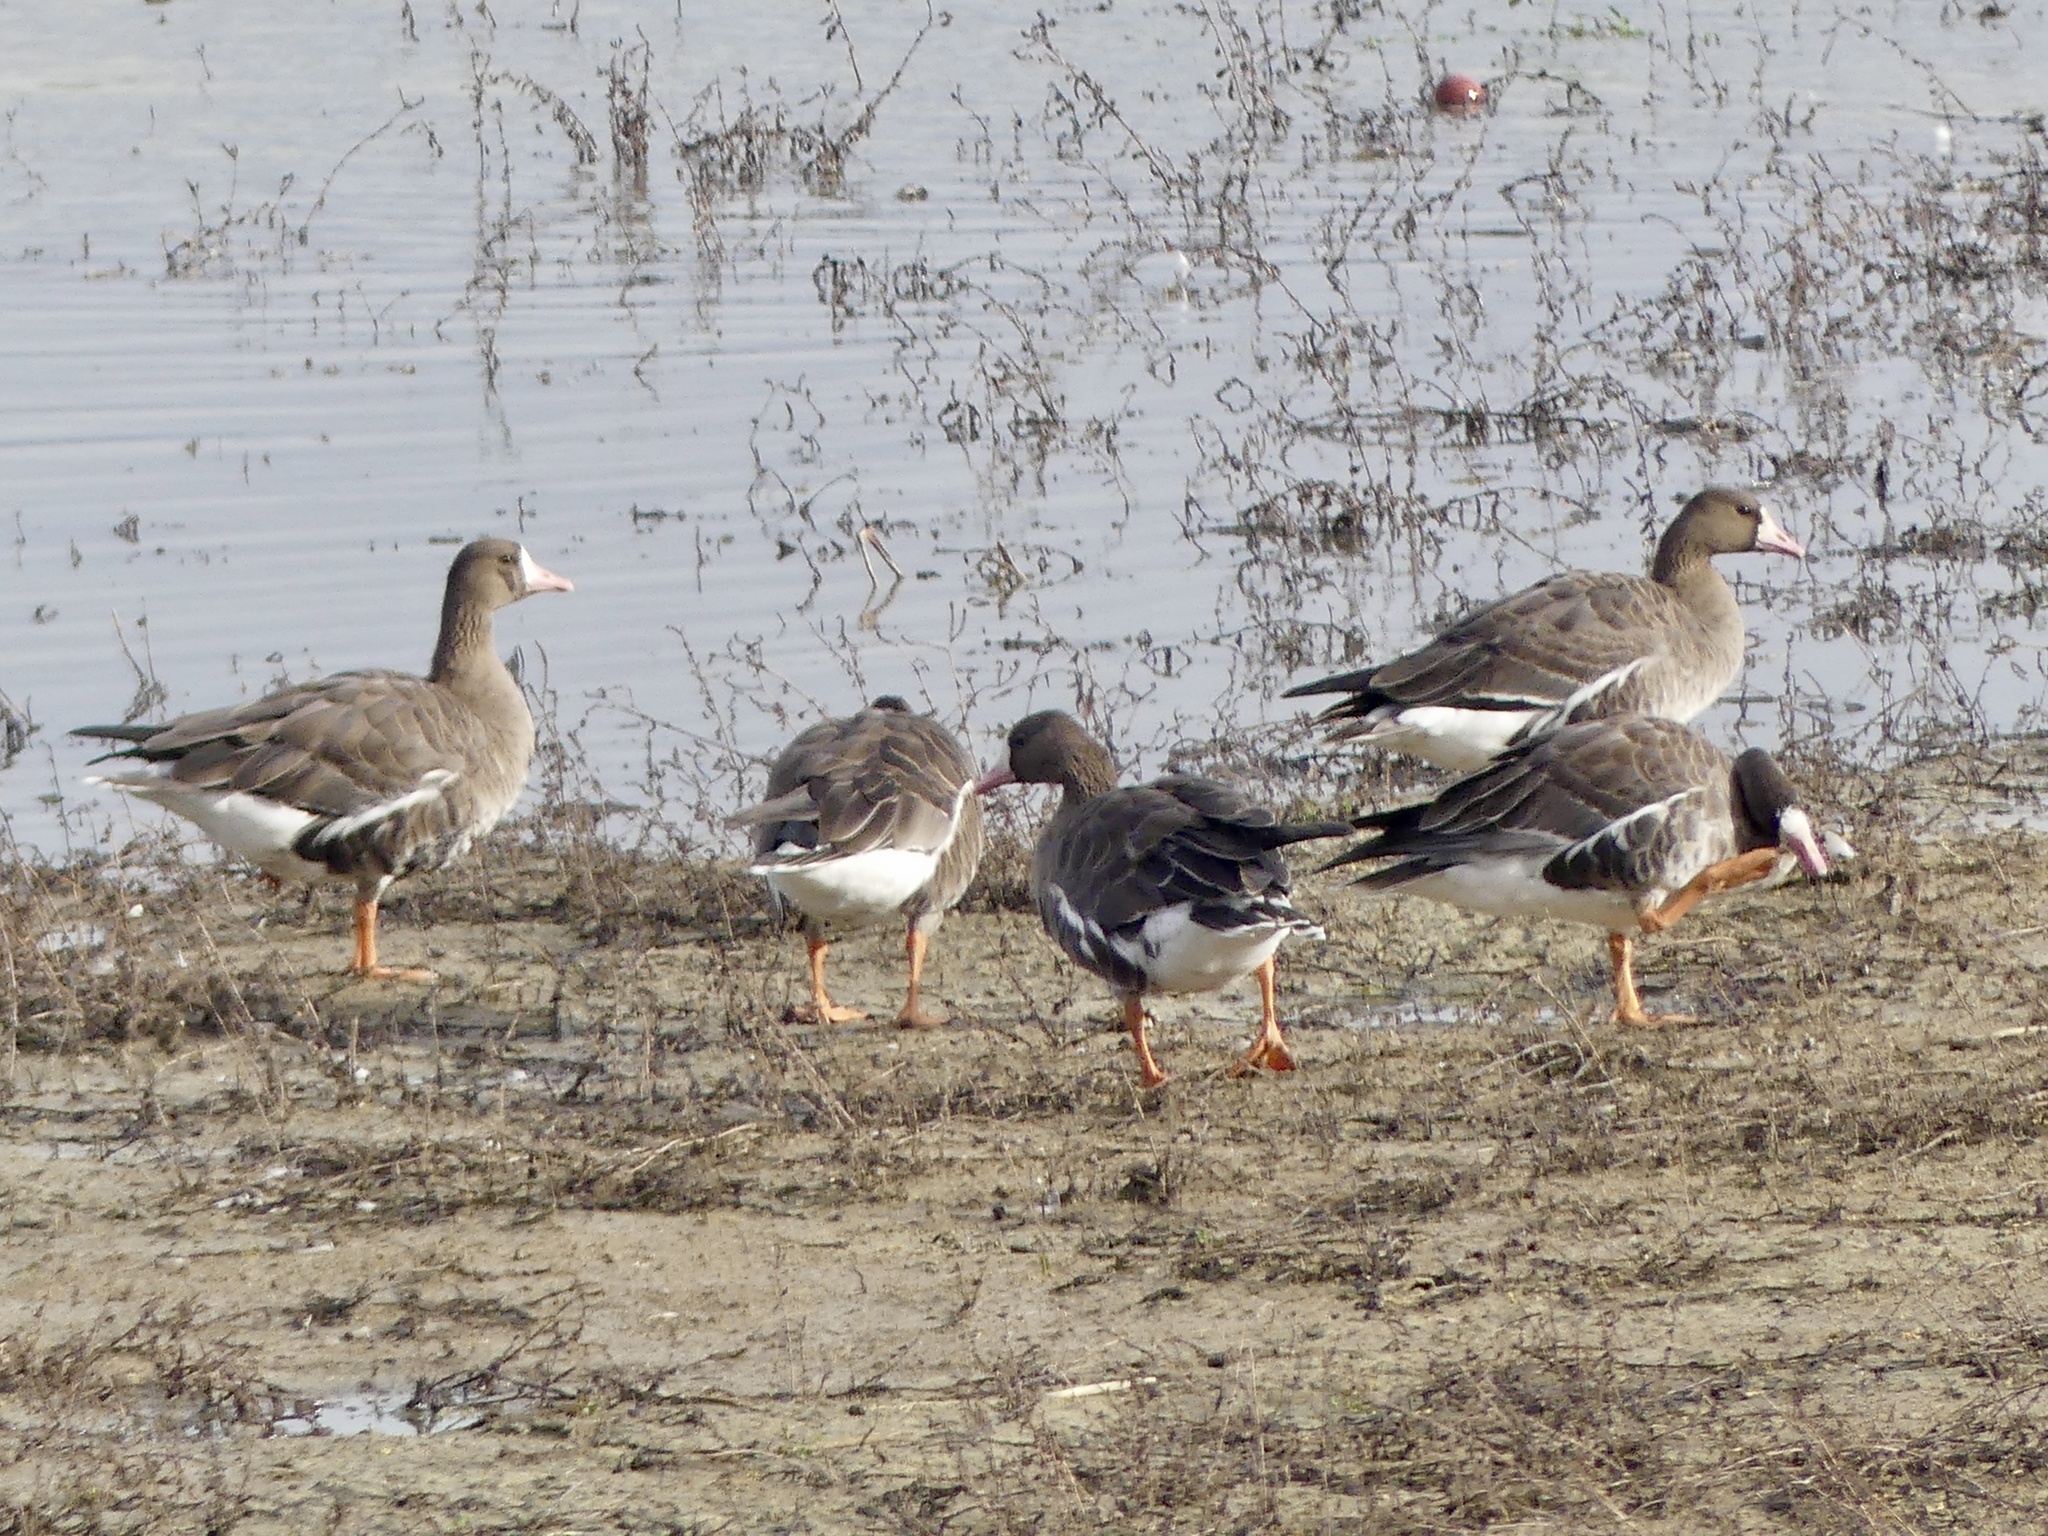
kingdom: Animalia
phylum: Chordata
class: Aves
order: Anseriformes
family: Anatidae
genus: Anser
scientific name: Anser albifrons
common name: Greater white-fronted goose
